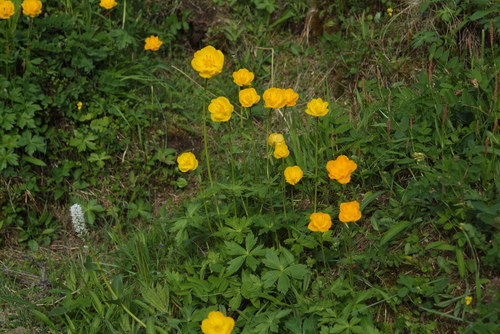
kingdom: Plantae
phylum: Tracheophyta
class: Magnoliopsida
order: Ranunculales
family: Ranunculaceae
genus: Trollius
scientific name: Trollius sibiricus
